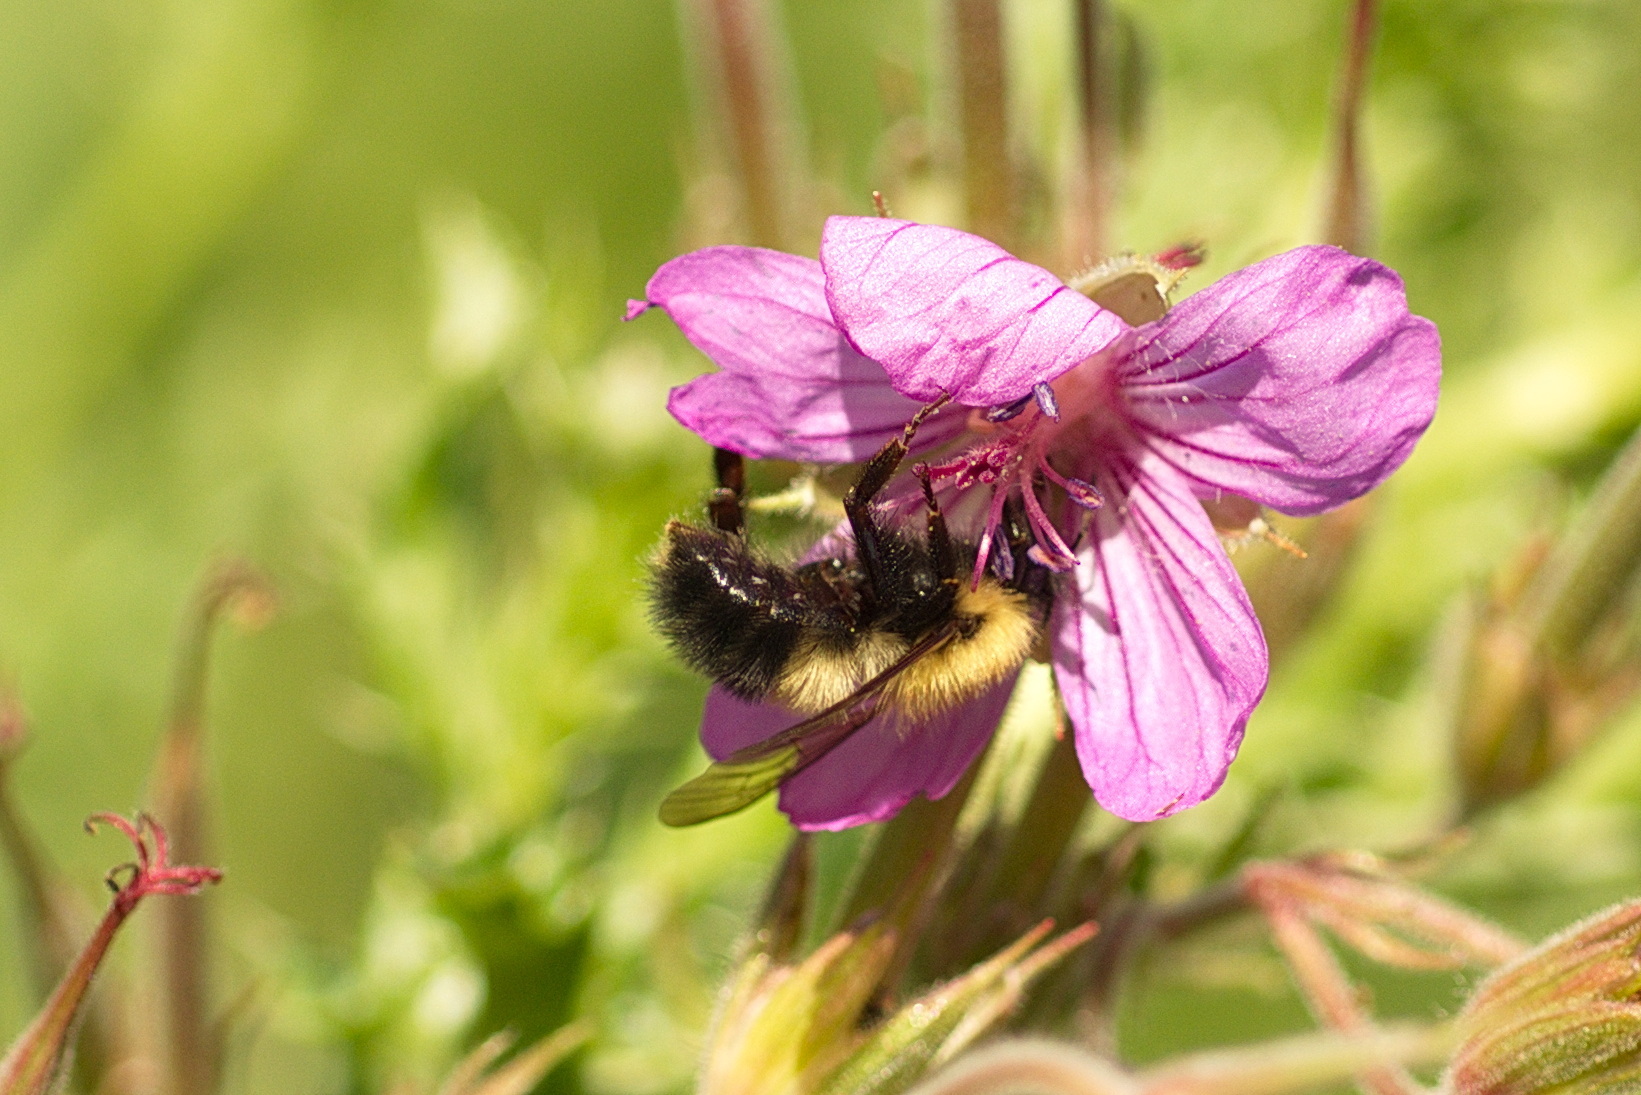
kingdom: Animalia
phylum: Arthropoda
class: Insecta
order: Hymenoptera
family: Apidae
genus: Bombus
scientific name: Bombus perplexus
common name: Confusing bumble bee
